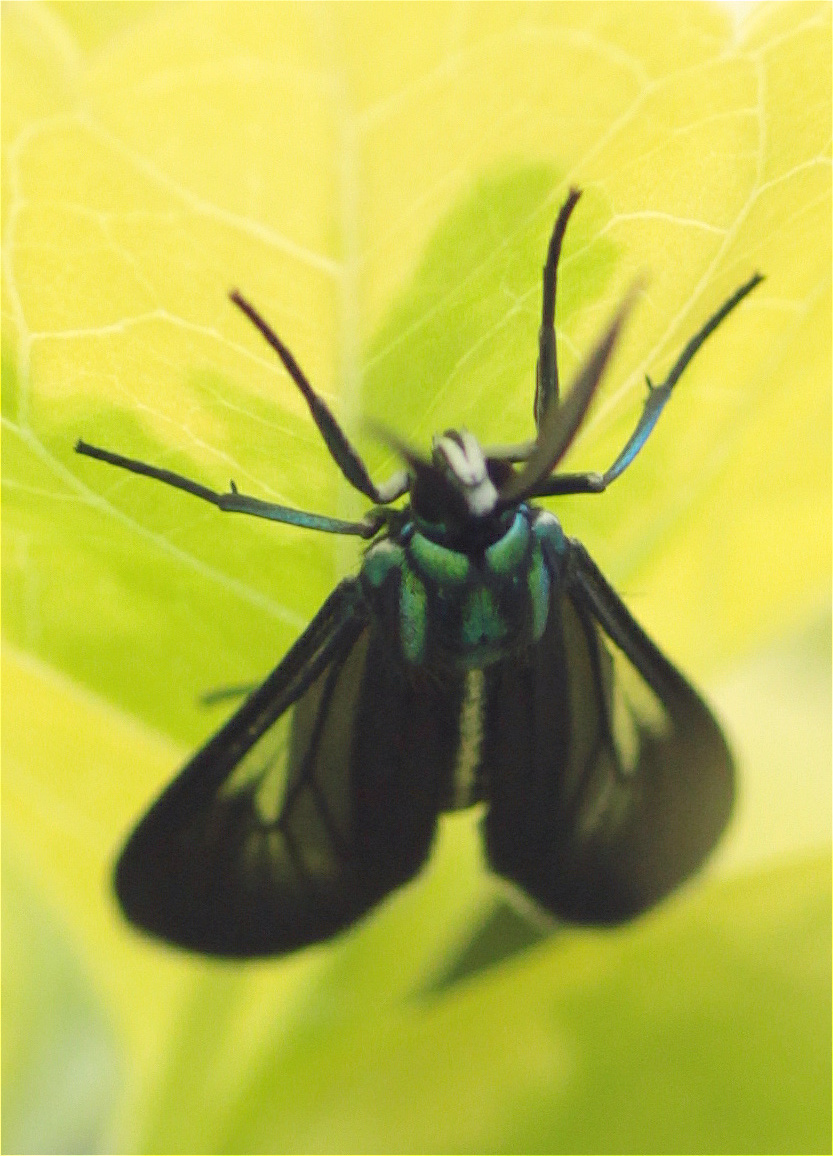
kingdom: Animalia
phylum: Arthropoda
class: Insecta
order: Lepidoptera
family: Erebidae
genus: Uranophora
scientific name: Uranophora leucotela
